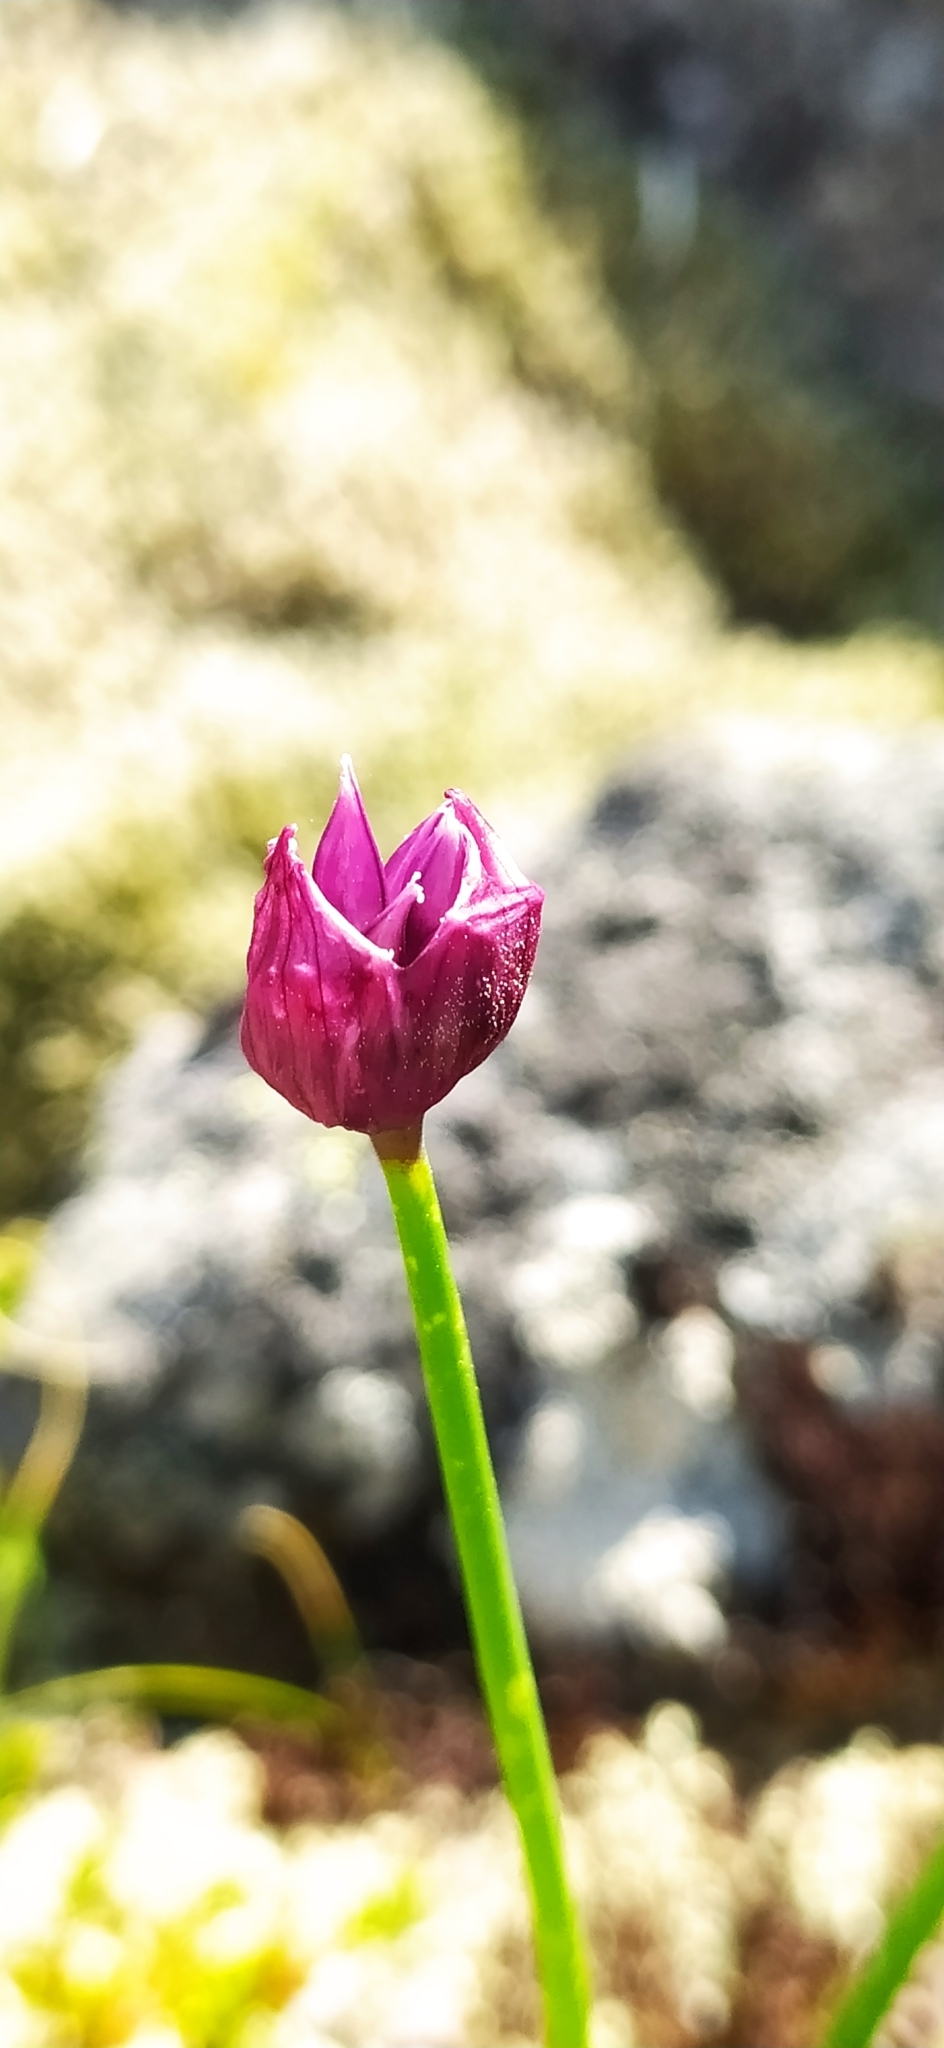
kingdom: Plantae
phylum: Tracheophyta
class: Liliopsida
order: Asparagales
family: Amaryllidaceae
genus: Allium
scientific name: Allium schoenoprasum
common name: Chives
